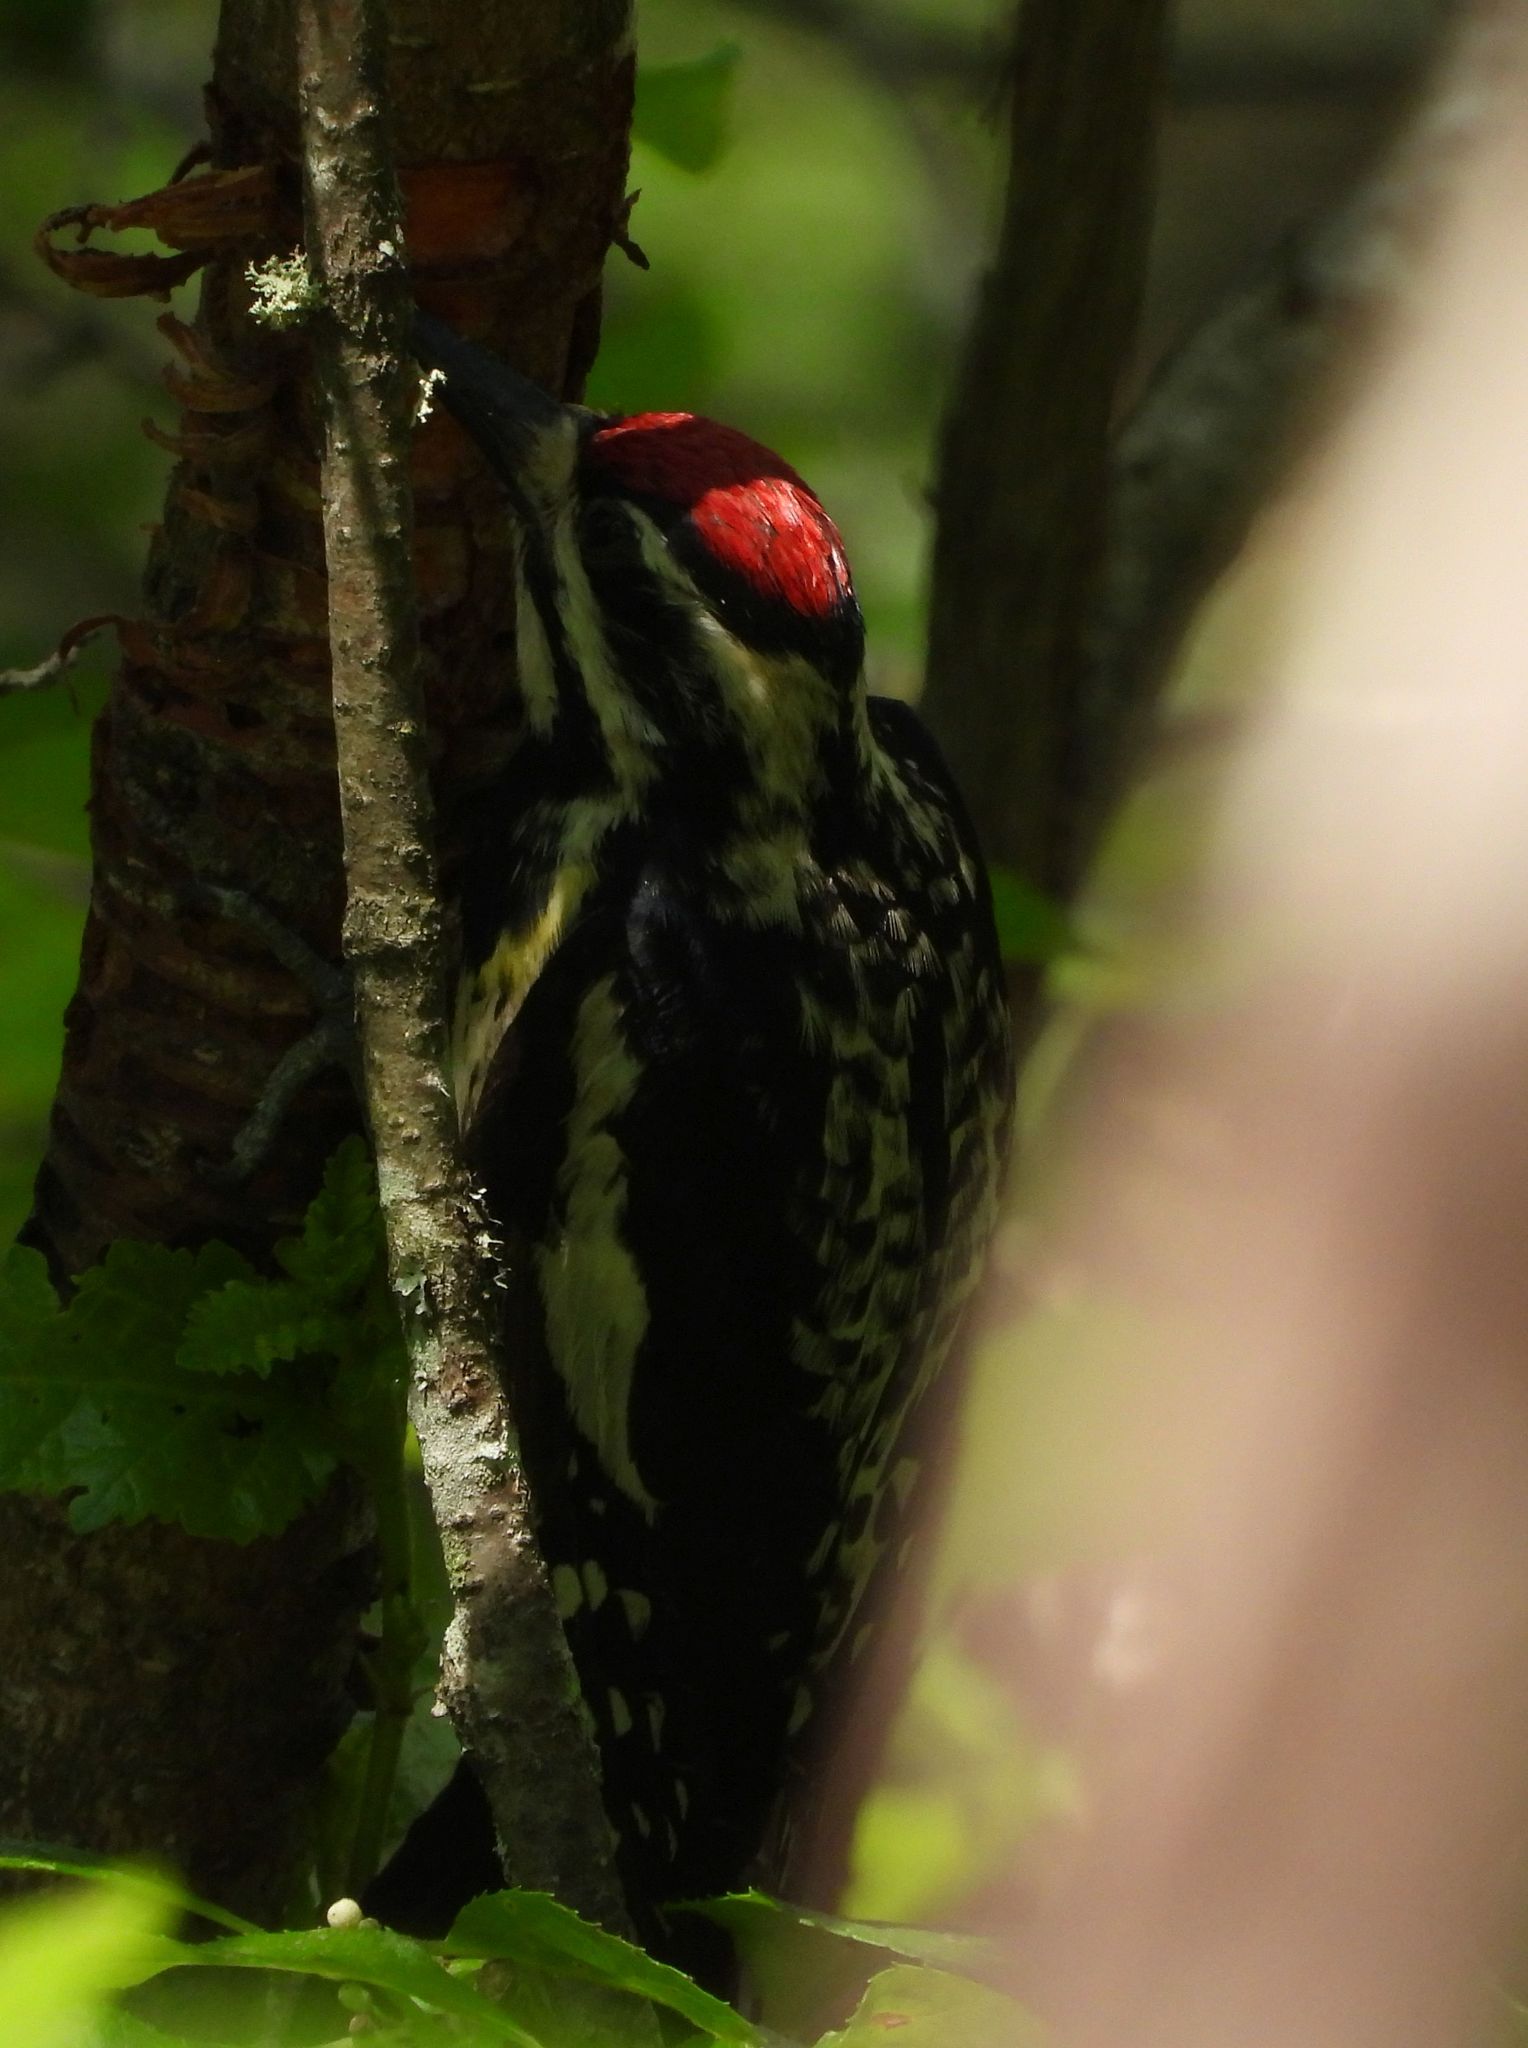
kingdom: Animalia
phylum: Chordata
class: Aves
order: Piciformes
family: Picidae
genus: Sphyrapicus
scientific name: Sphyrapicus varius
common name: Yellow-bellied sapsucker
